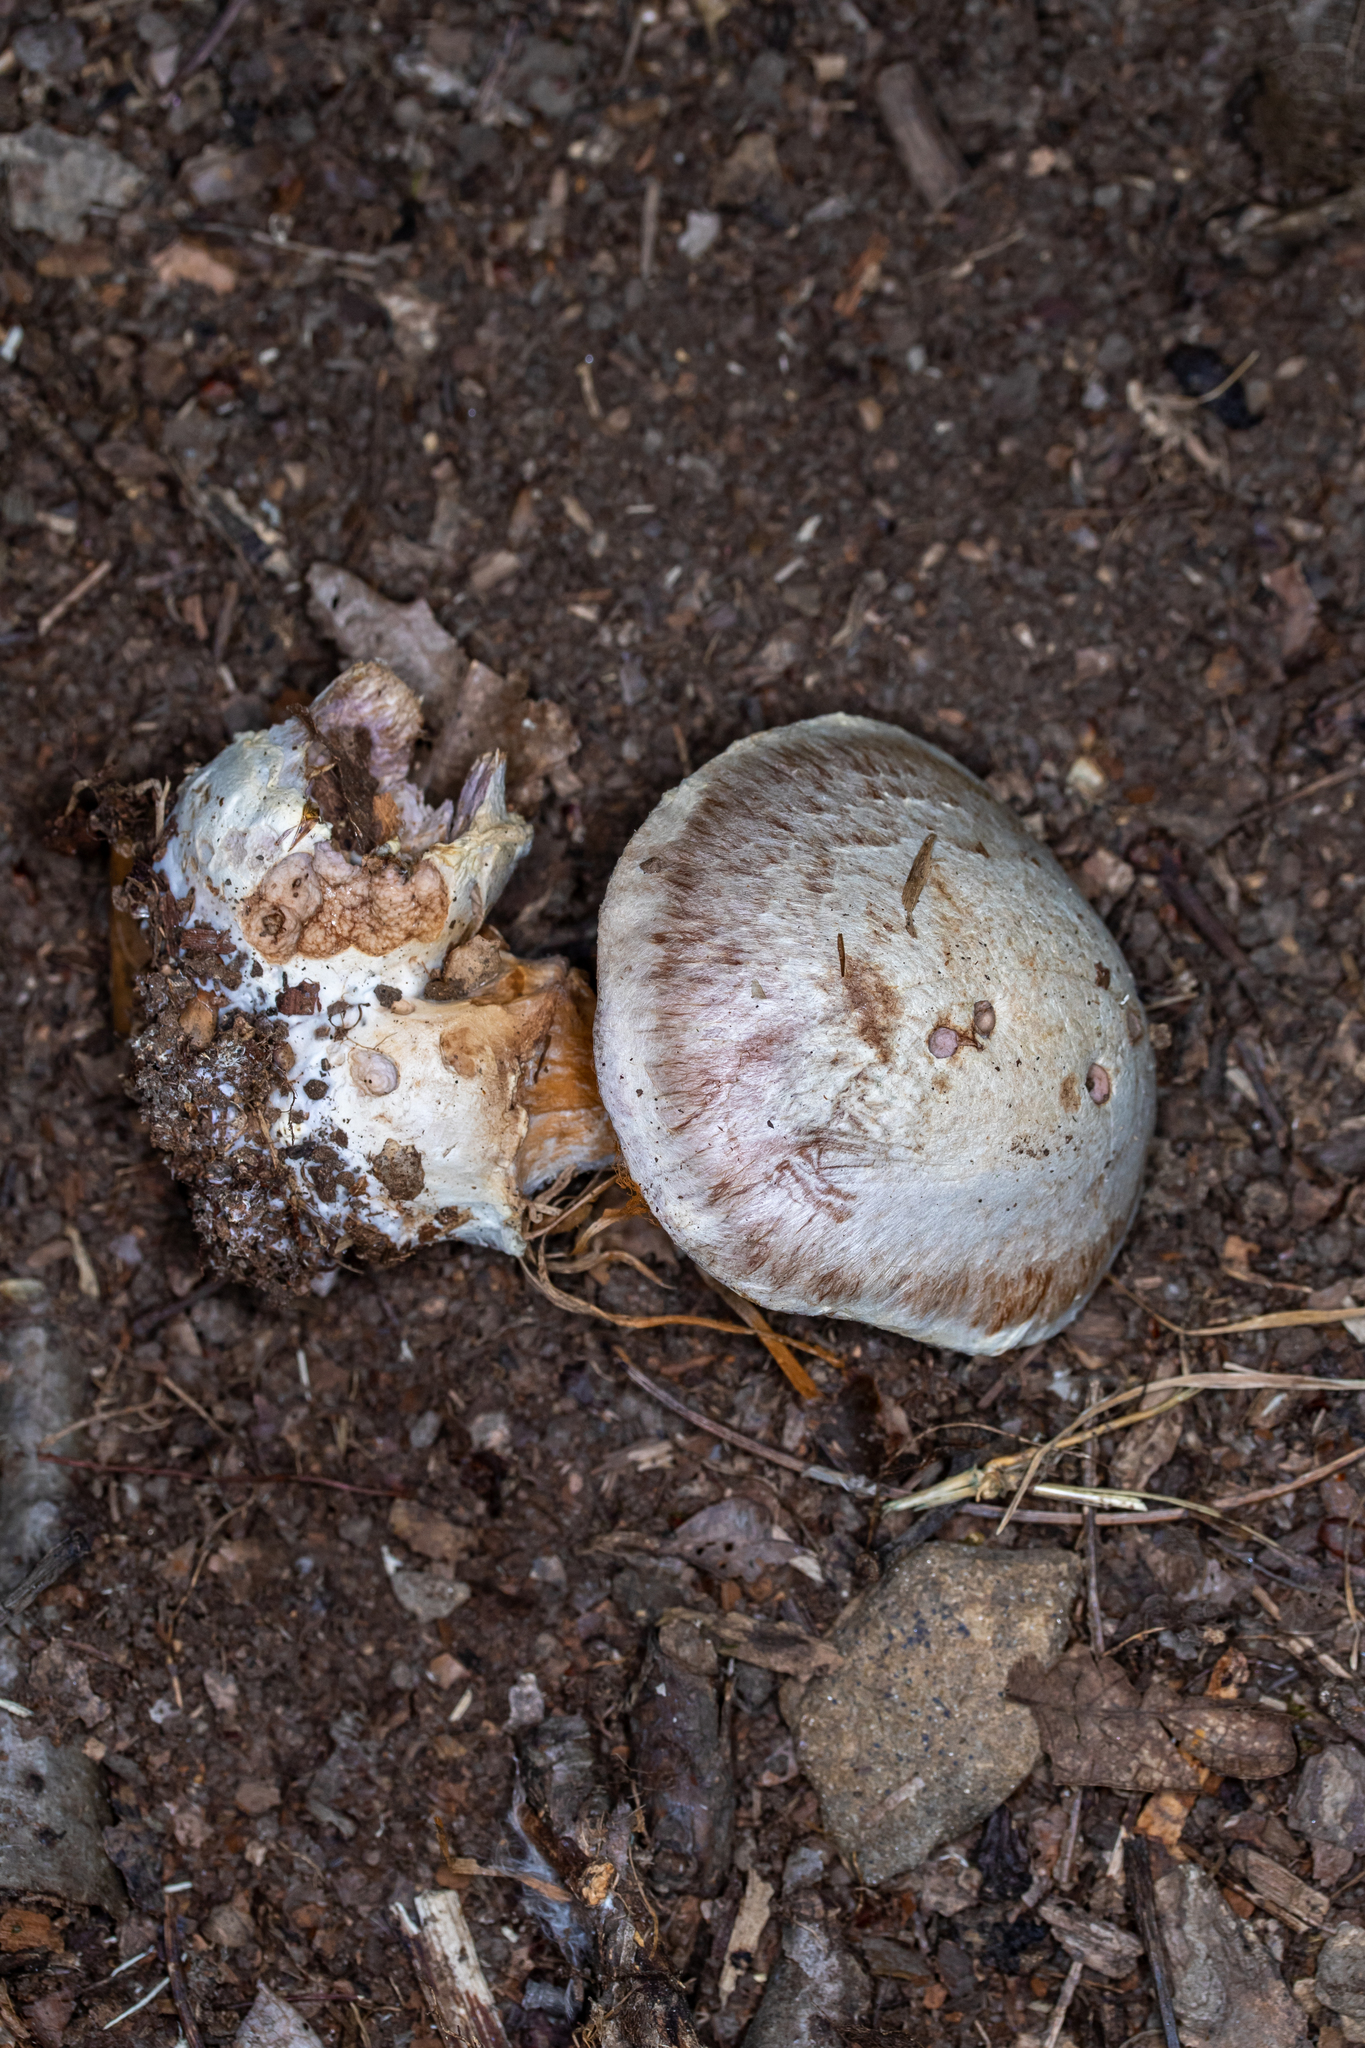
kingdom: Fungi
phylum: Basidiomycota
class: Agaricomycetes
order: Agaricales
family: Cortinariaceae
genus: Cortinarius
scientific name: Cortinarius alboviolaceus
